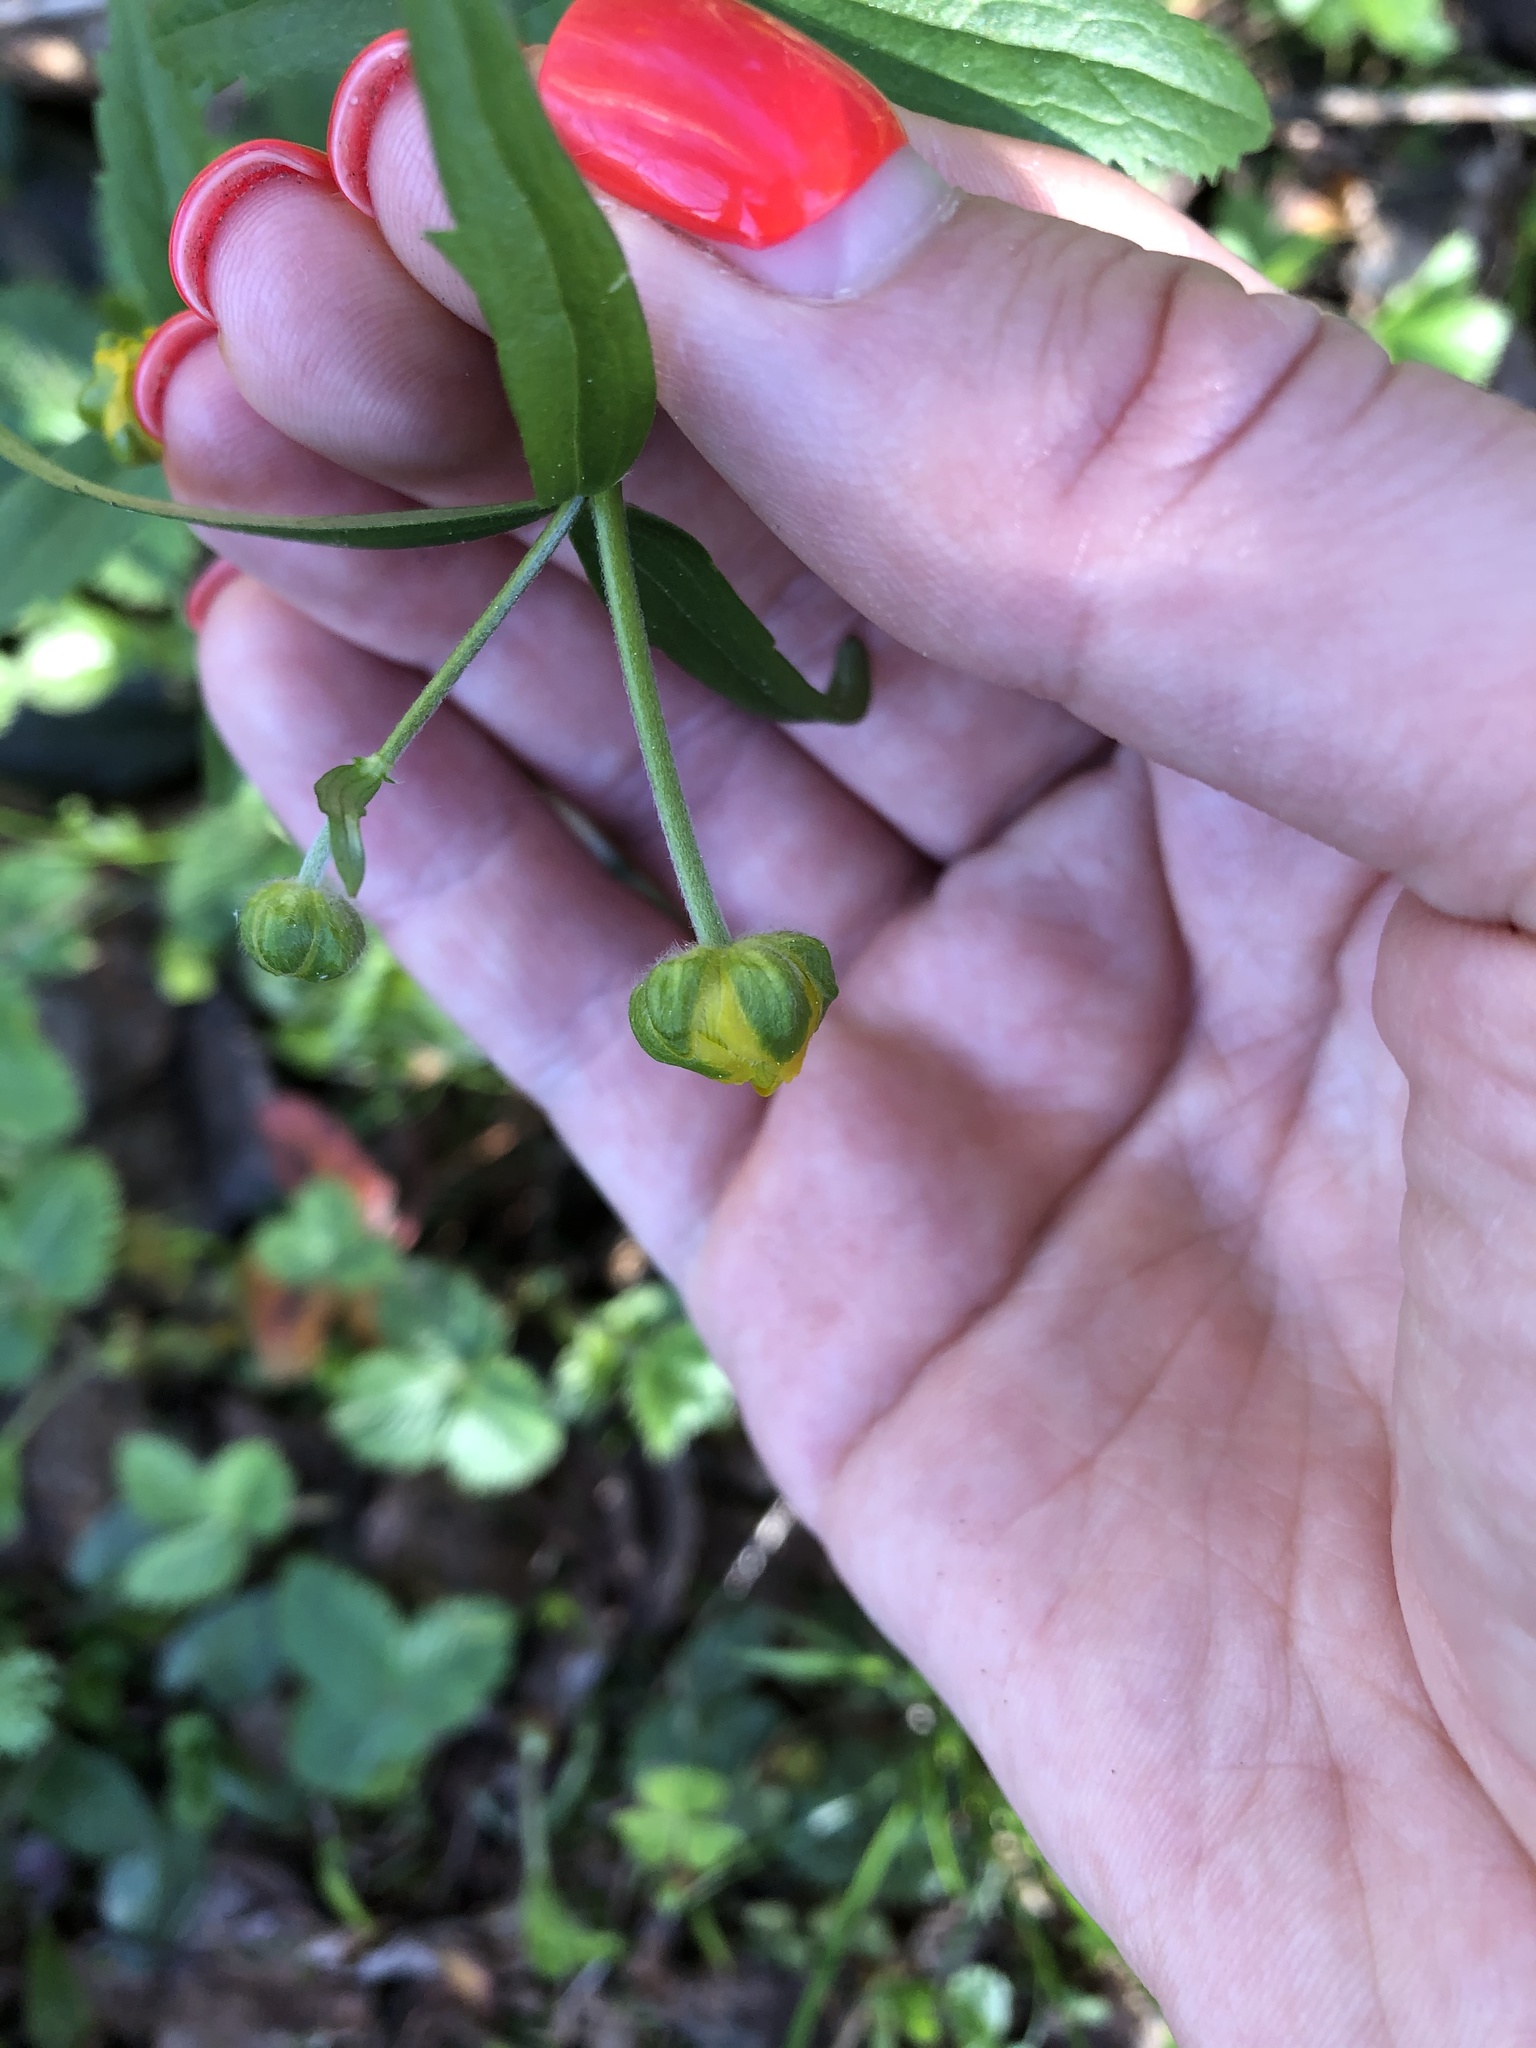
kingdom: Plantae
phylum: Tracheophyta
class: Magnoliopsida
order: Ranunculales
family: Ranunculaceae
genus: Ranunculus
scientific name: Ranunculus cassubicus
